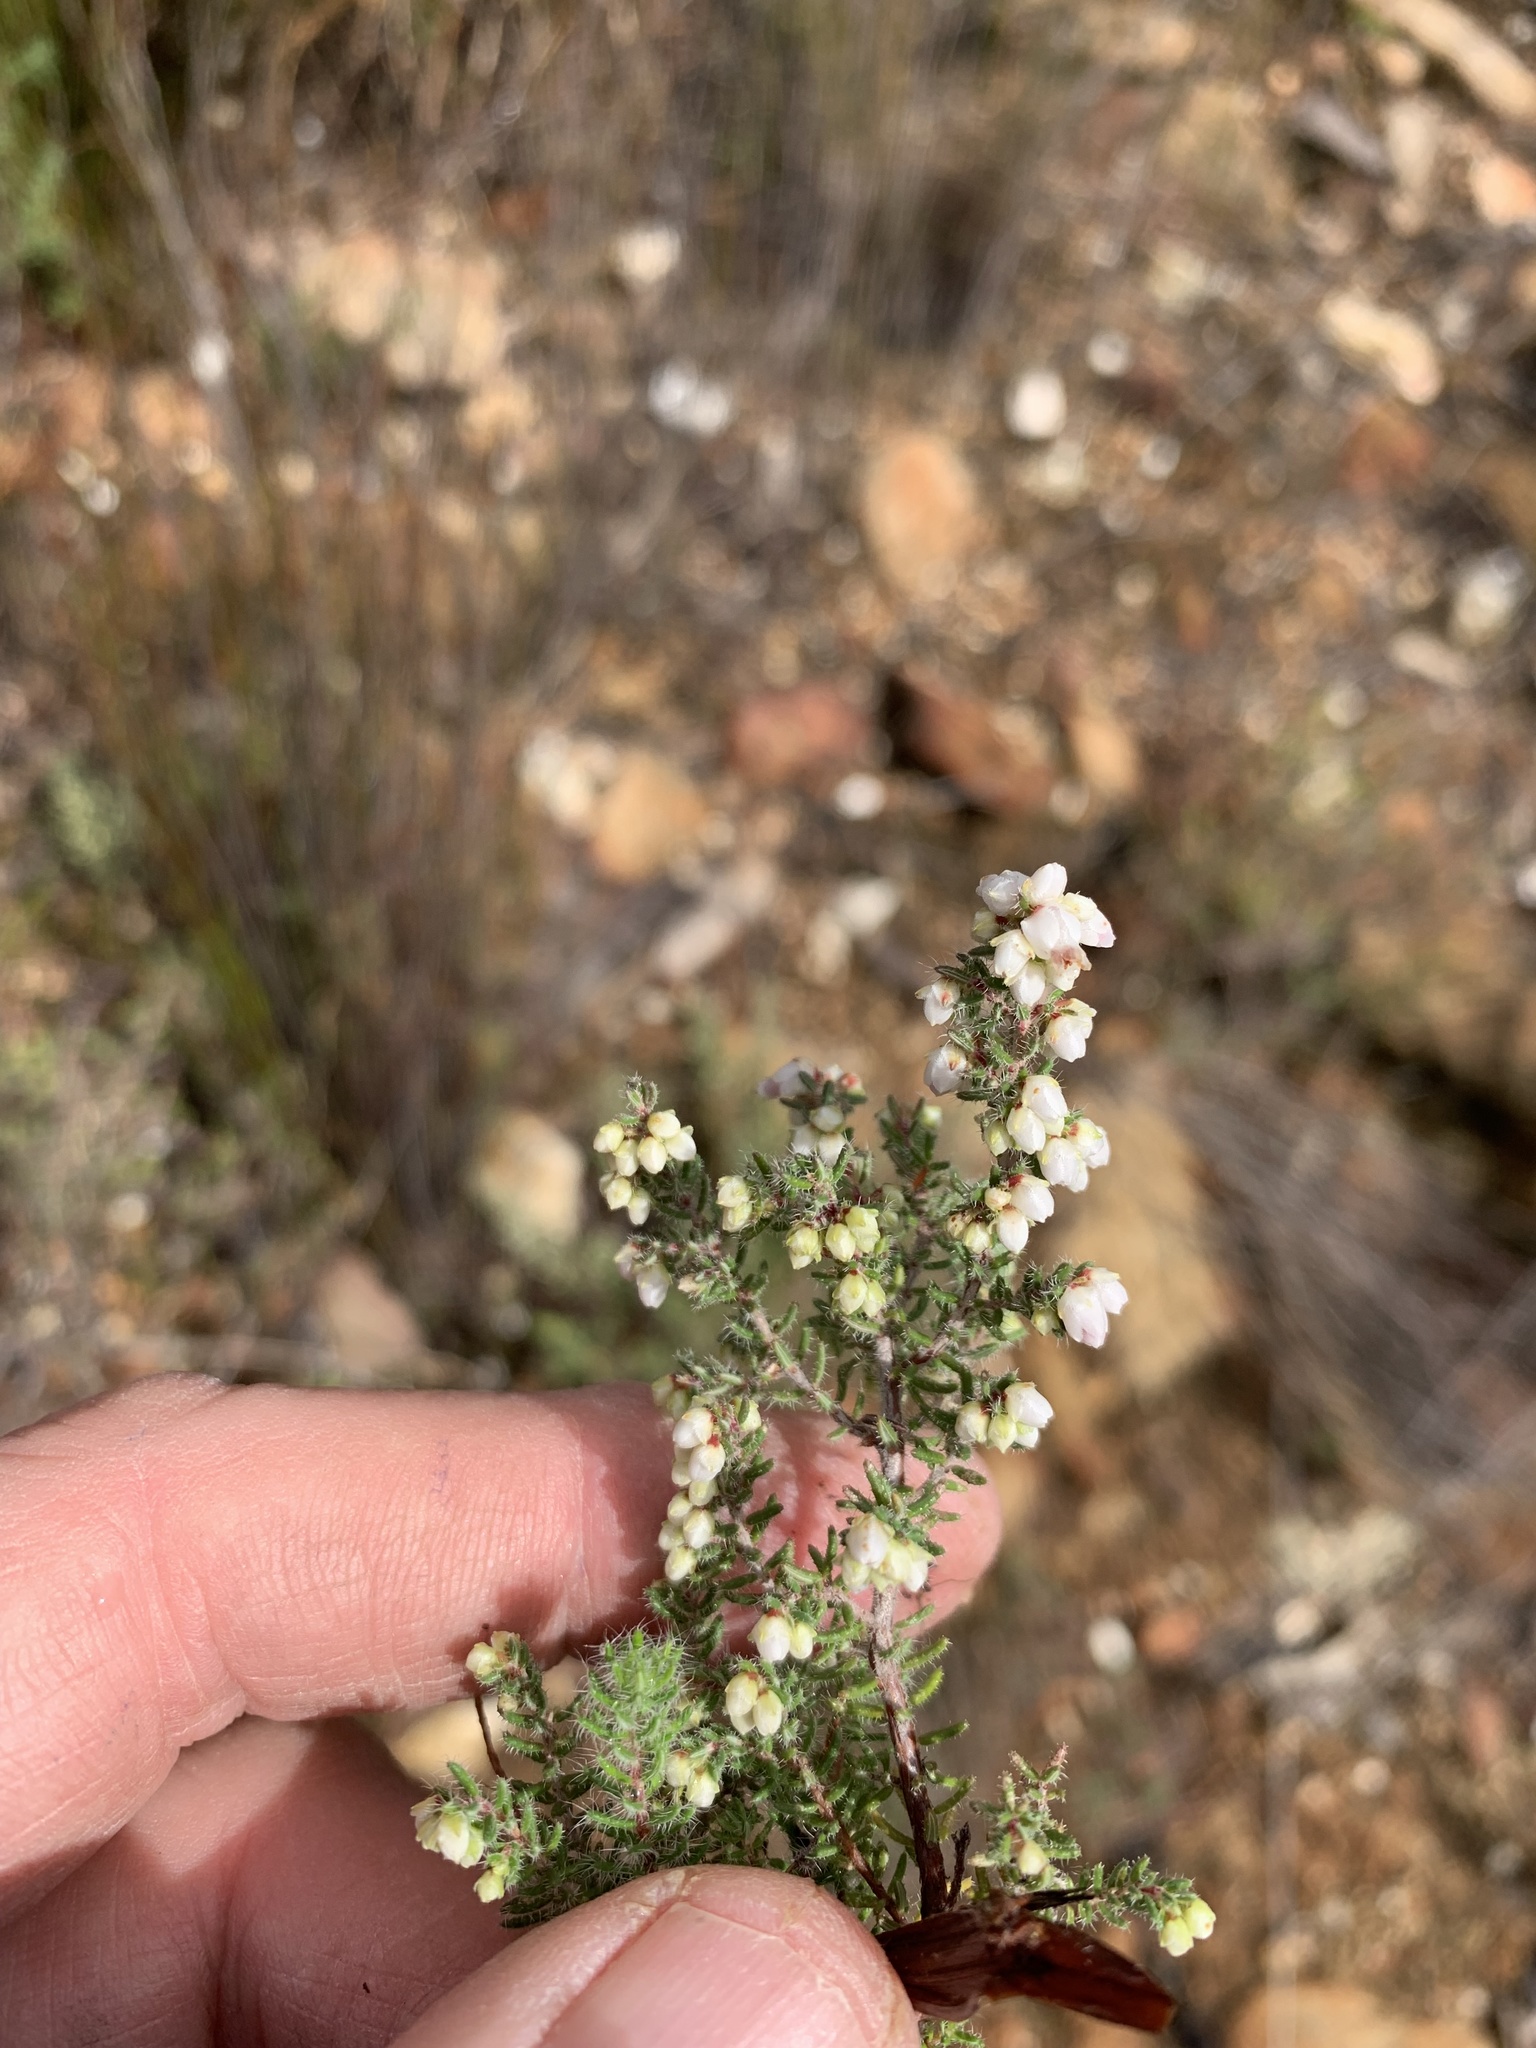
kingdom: Plantae
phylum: Tracheophyta
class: Magnoliopsida
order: Ericales
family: Ericaceae
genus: Erica
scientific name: Erica totta
